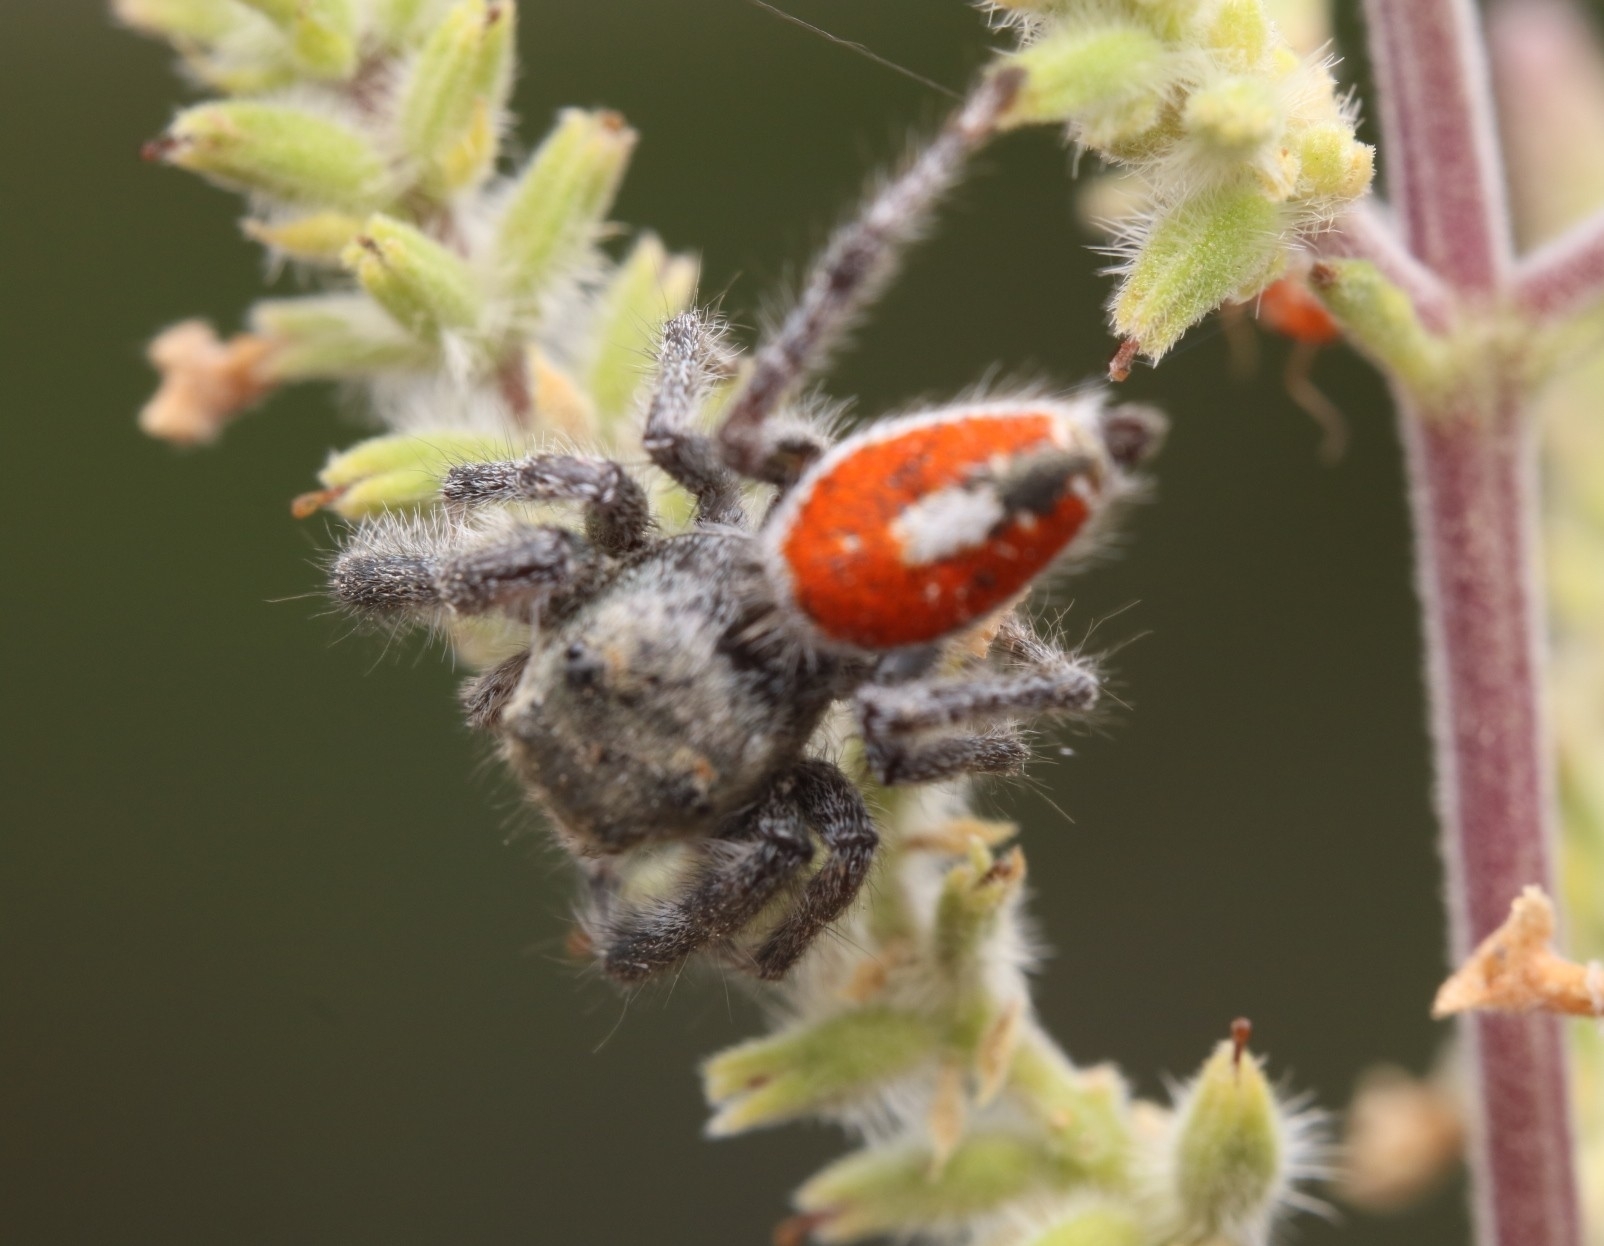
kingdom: Animalia
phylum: Arthropoda
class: Arachnida
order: Araneae
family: Salticidae
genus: Phidippus
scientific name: Phidippus vexans
